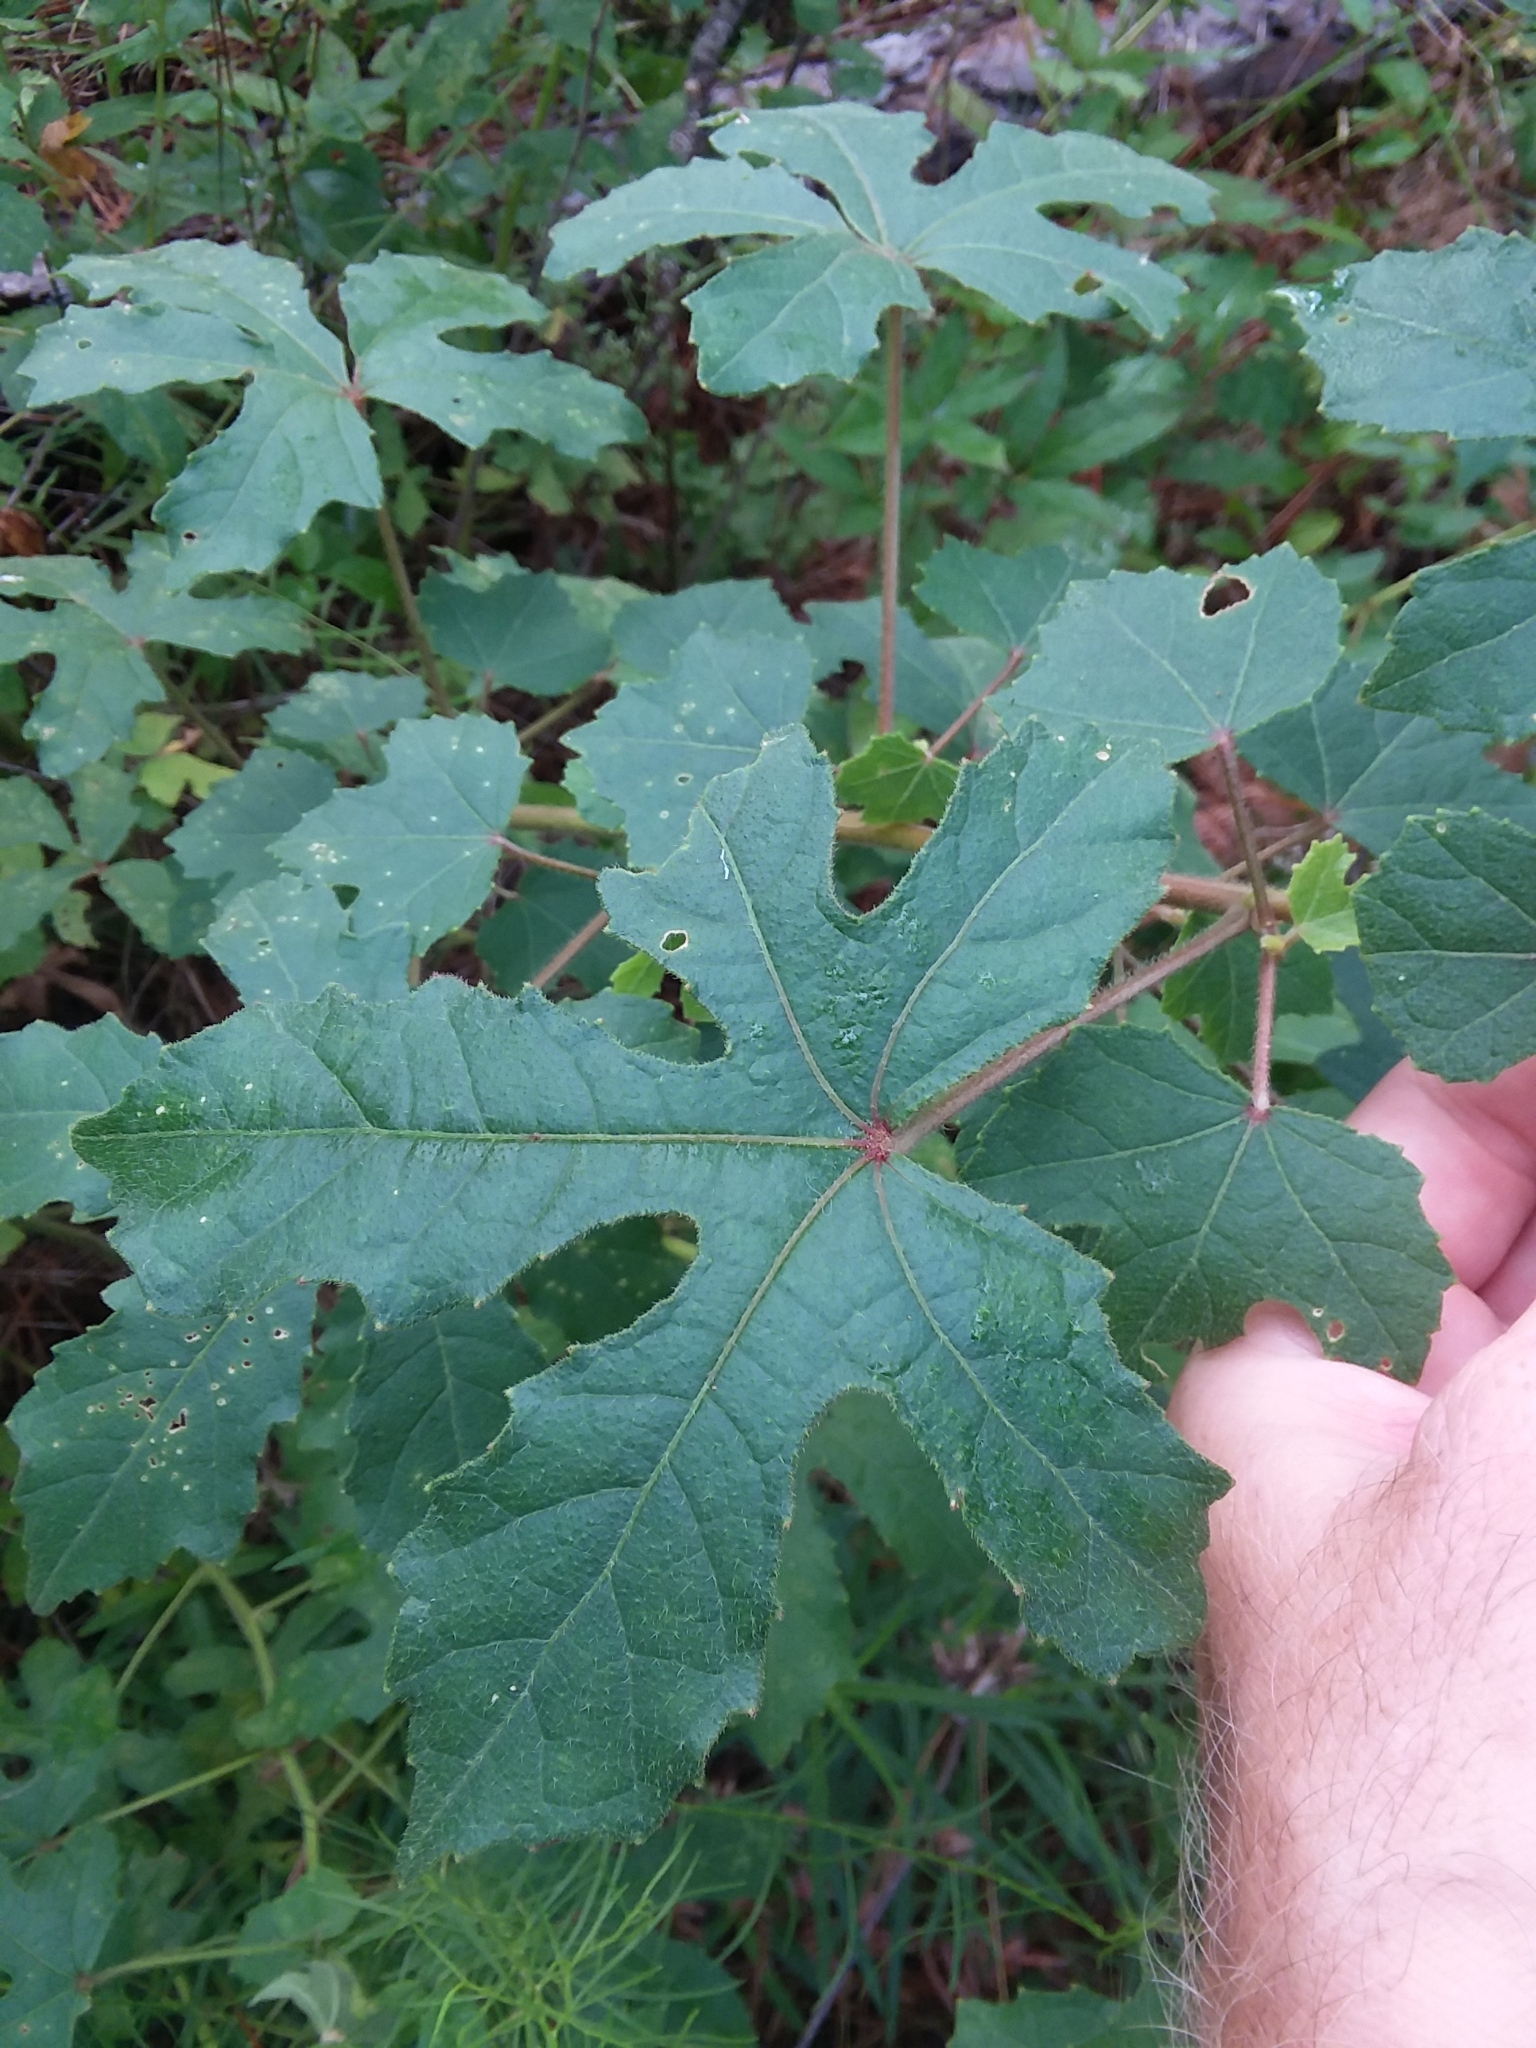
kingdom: Plantae
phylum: Tracheophyta
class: Magnoliopsida
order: Malvales
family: Malvaceae
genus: Hibiscus
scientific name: Hibiscus aculeatus
